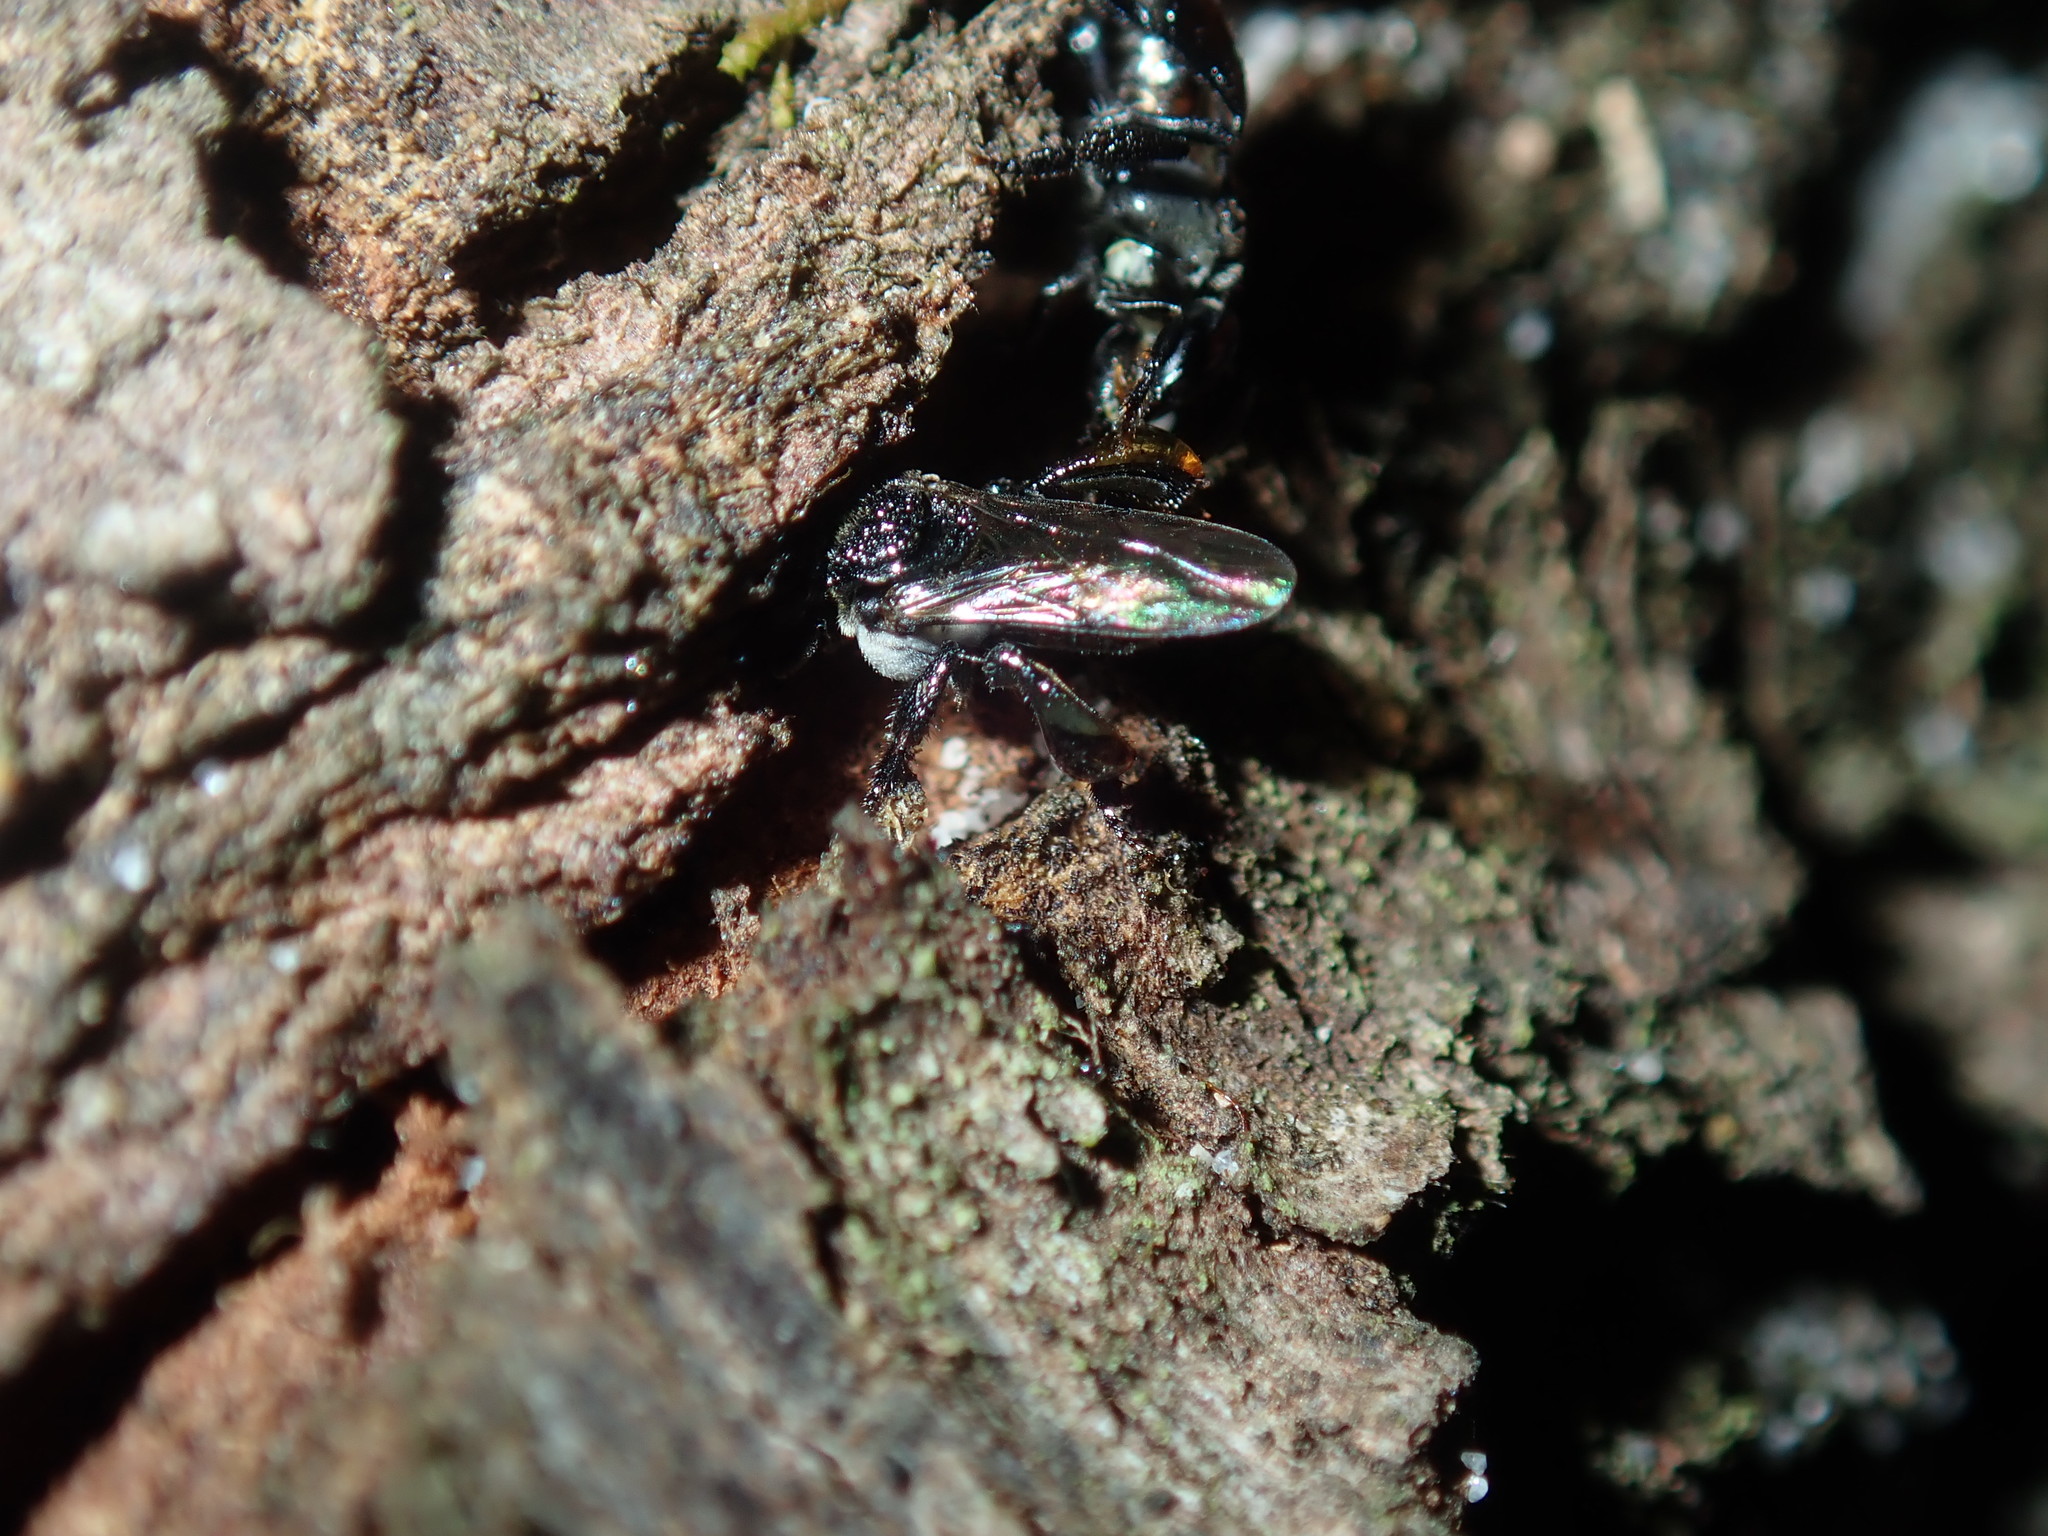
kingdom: Animalia
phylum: Arthropoda
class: Insecta
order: Hymenoptera
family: Apidae
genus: Tetragonula
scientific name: Tetragonula carbonaria
